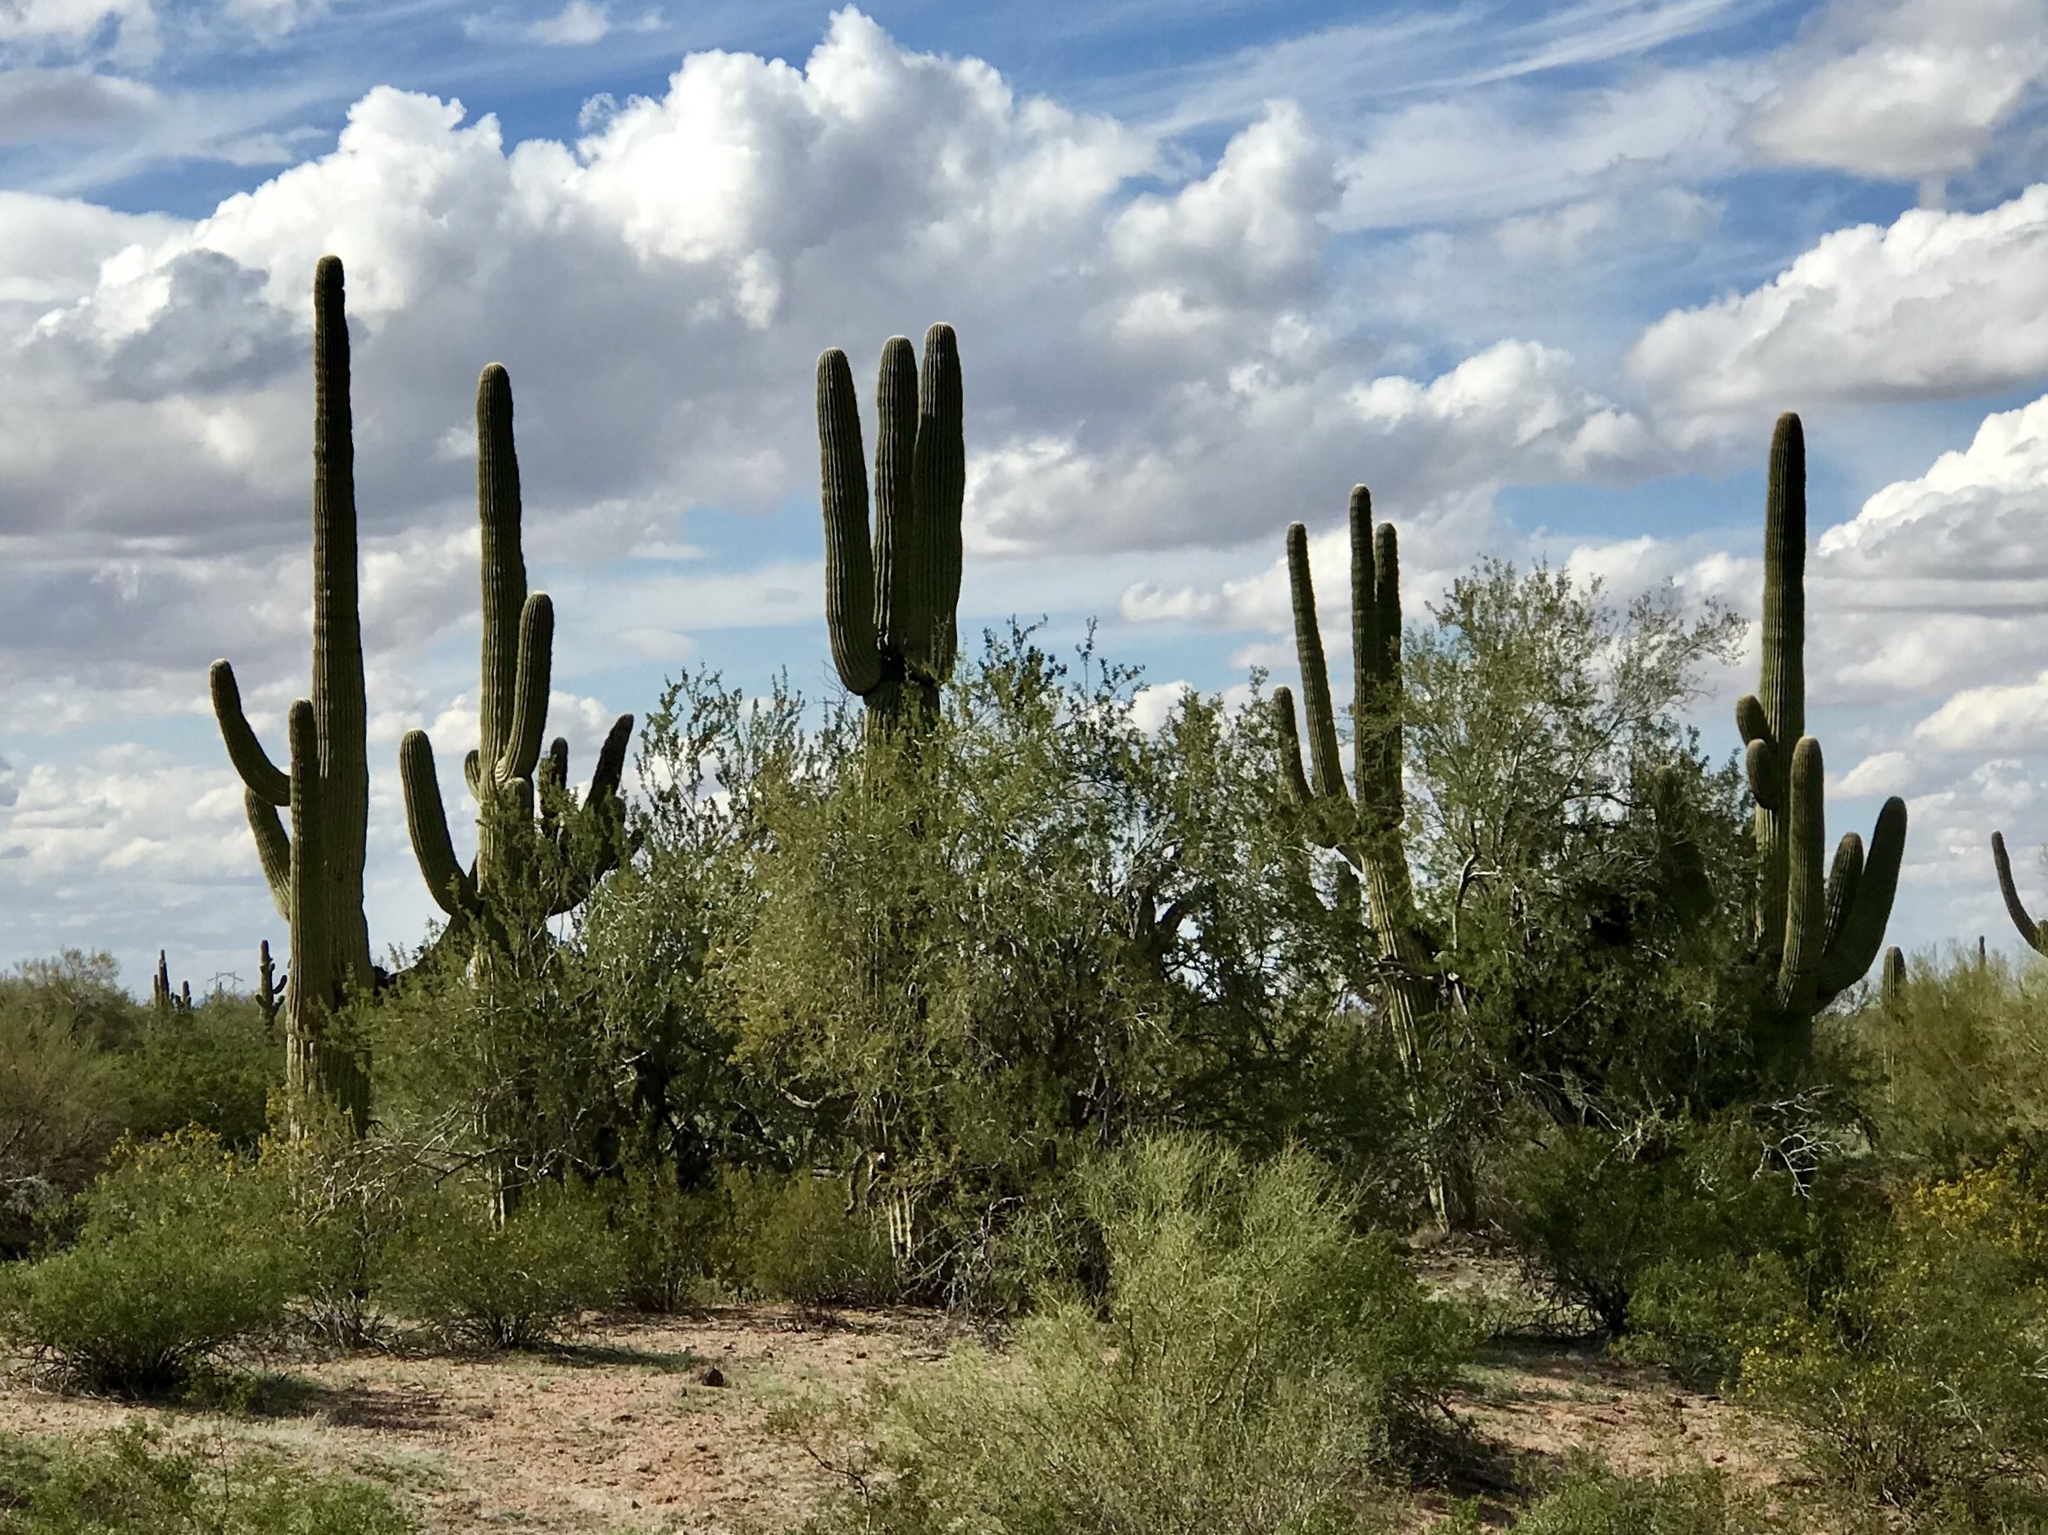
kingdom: Plantae
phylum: Tracheophyta
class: Magnoliopsida
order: Caryophyllales
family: Cactaceae
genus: Carnegiea
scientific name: Carnegiea gigantea
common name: Saguaro
